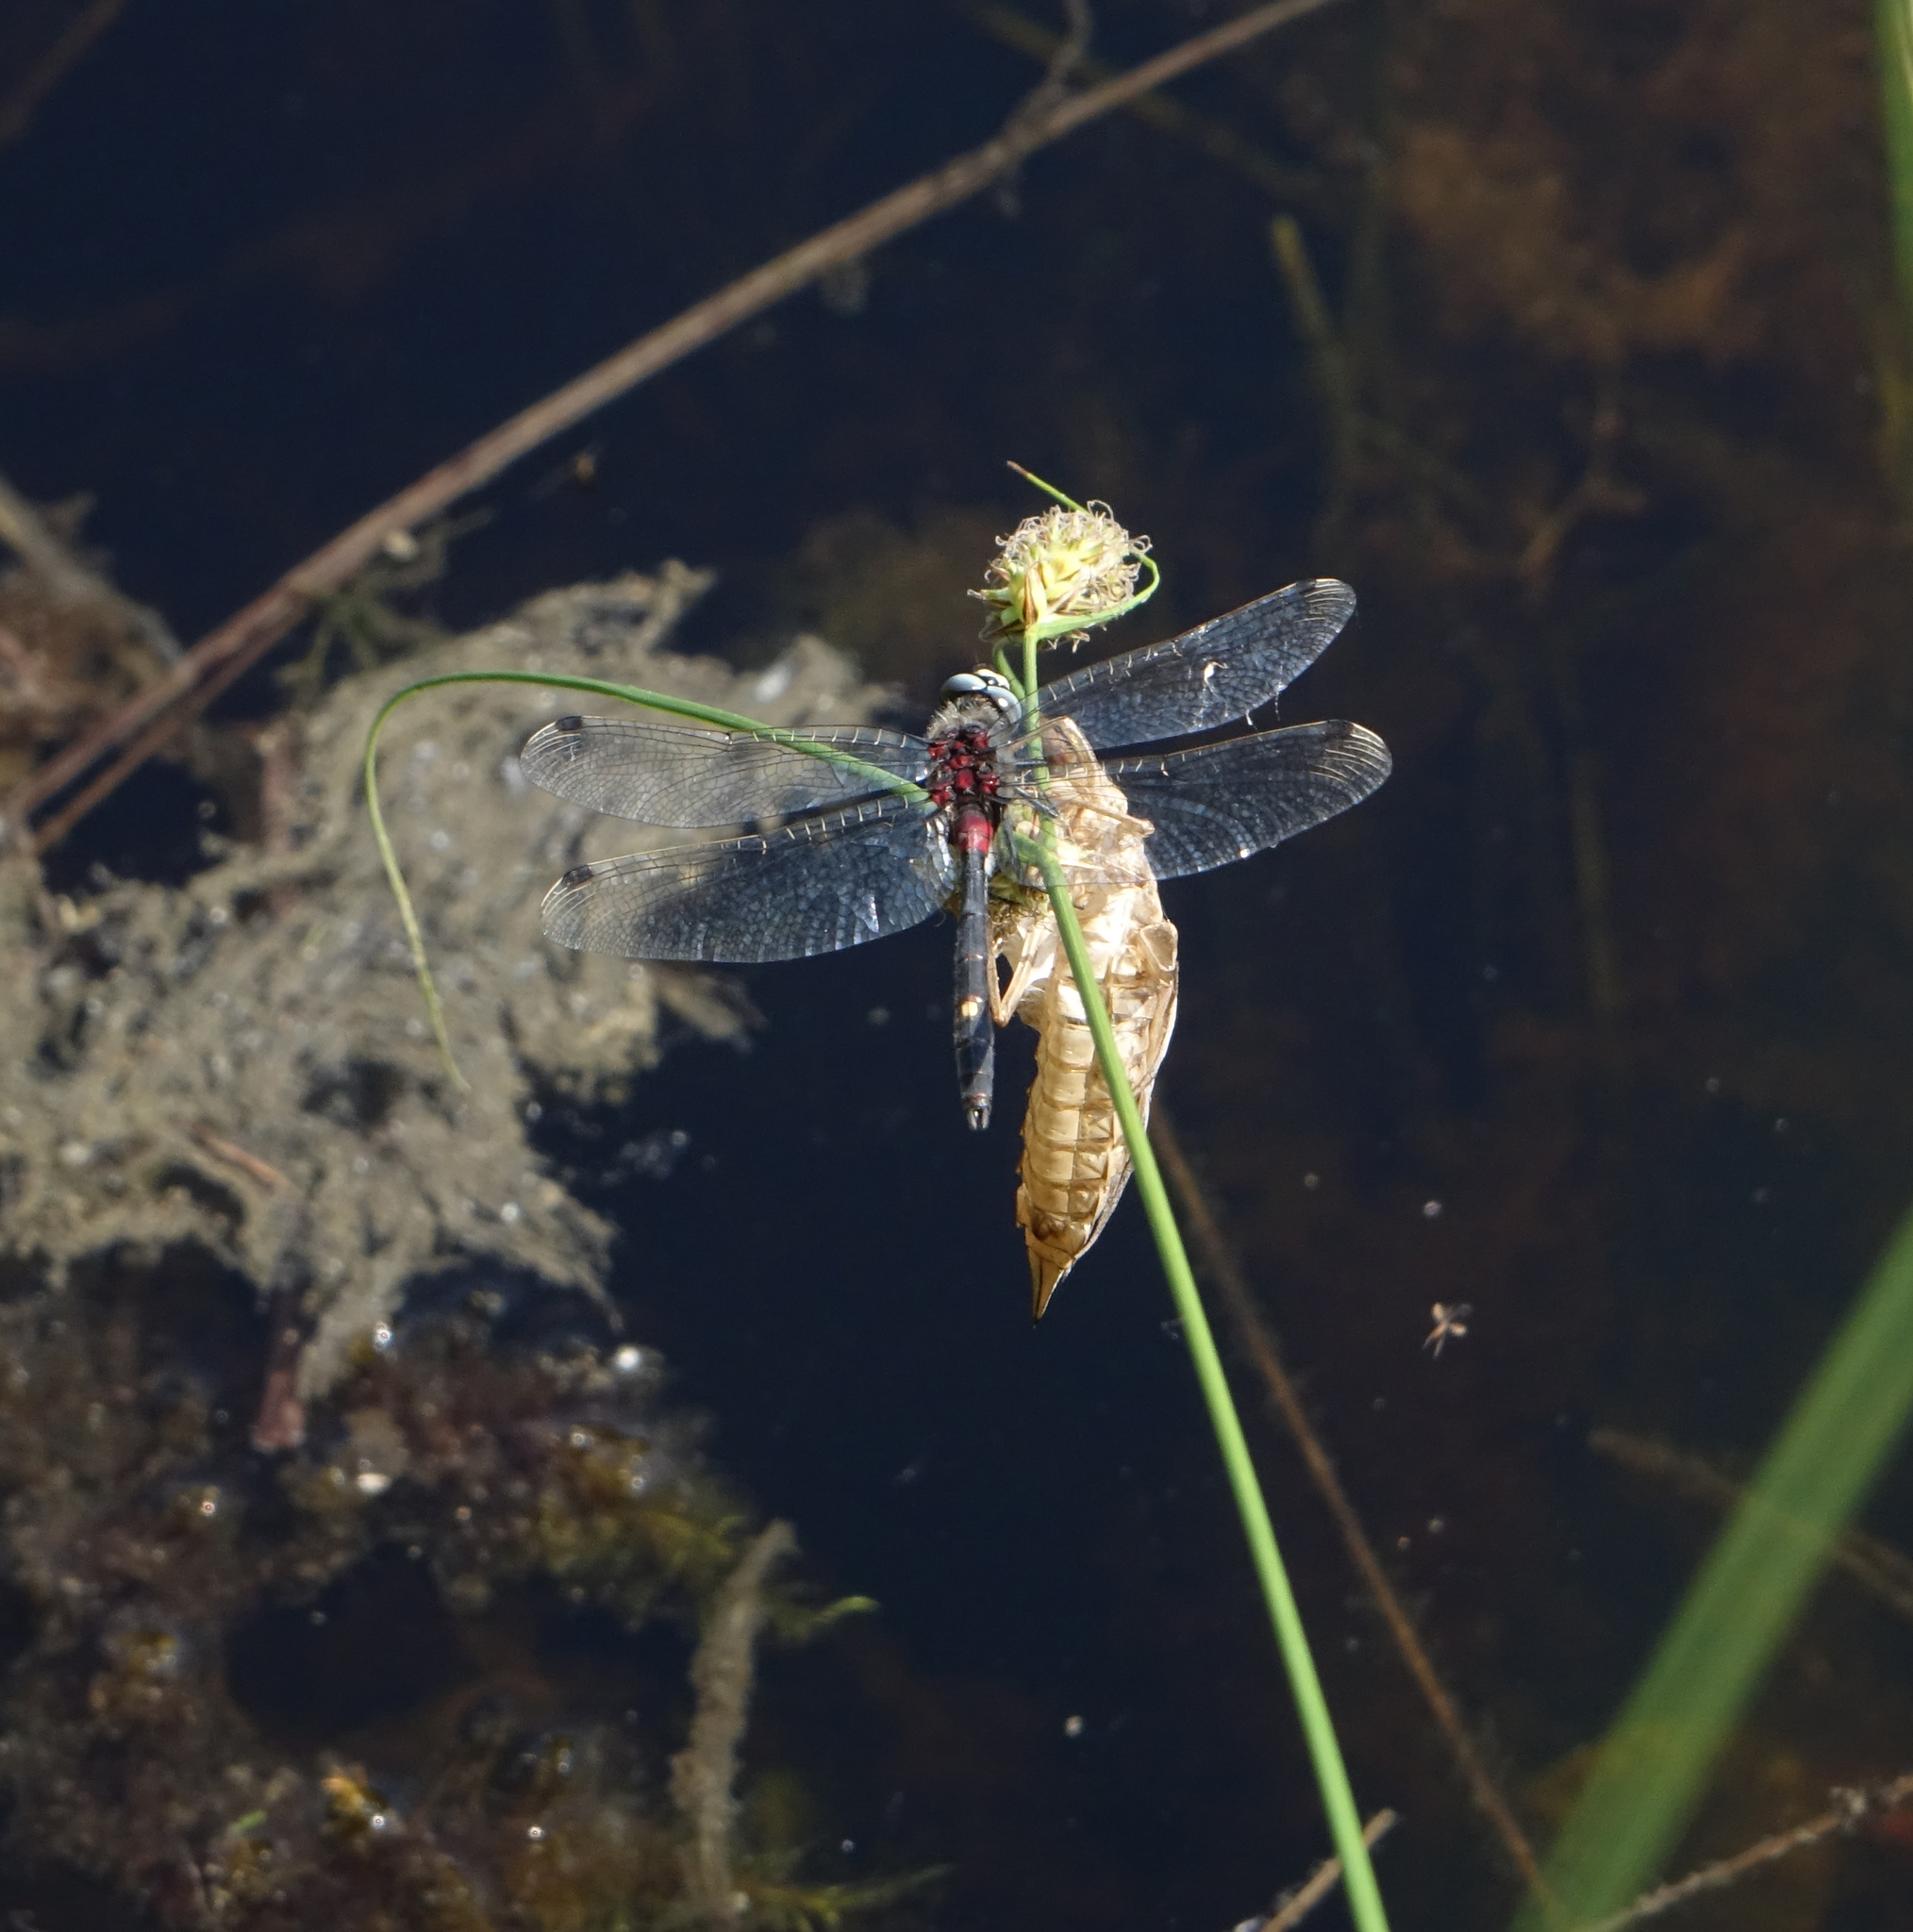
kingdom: Animalia
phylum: Arthropoda
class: Insecta
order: Odonata
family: Libellulidae
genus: Leucorrhinia
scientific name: Leucorrhinia orientalis
